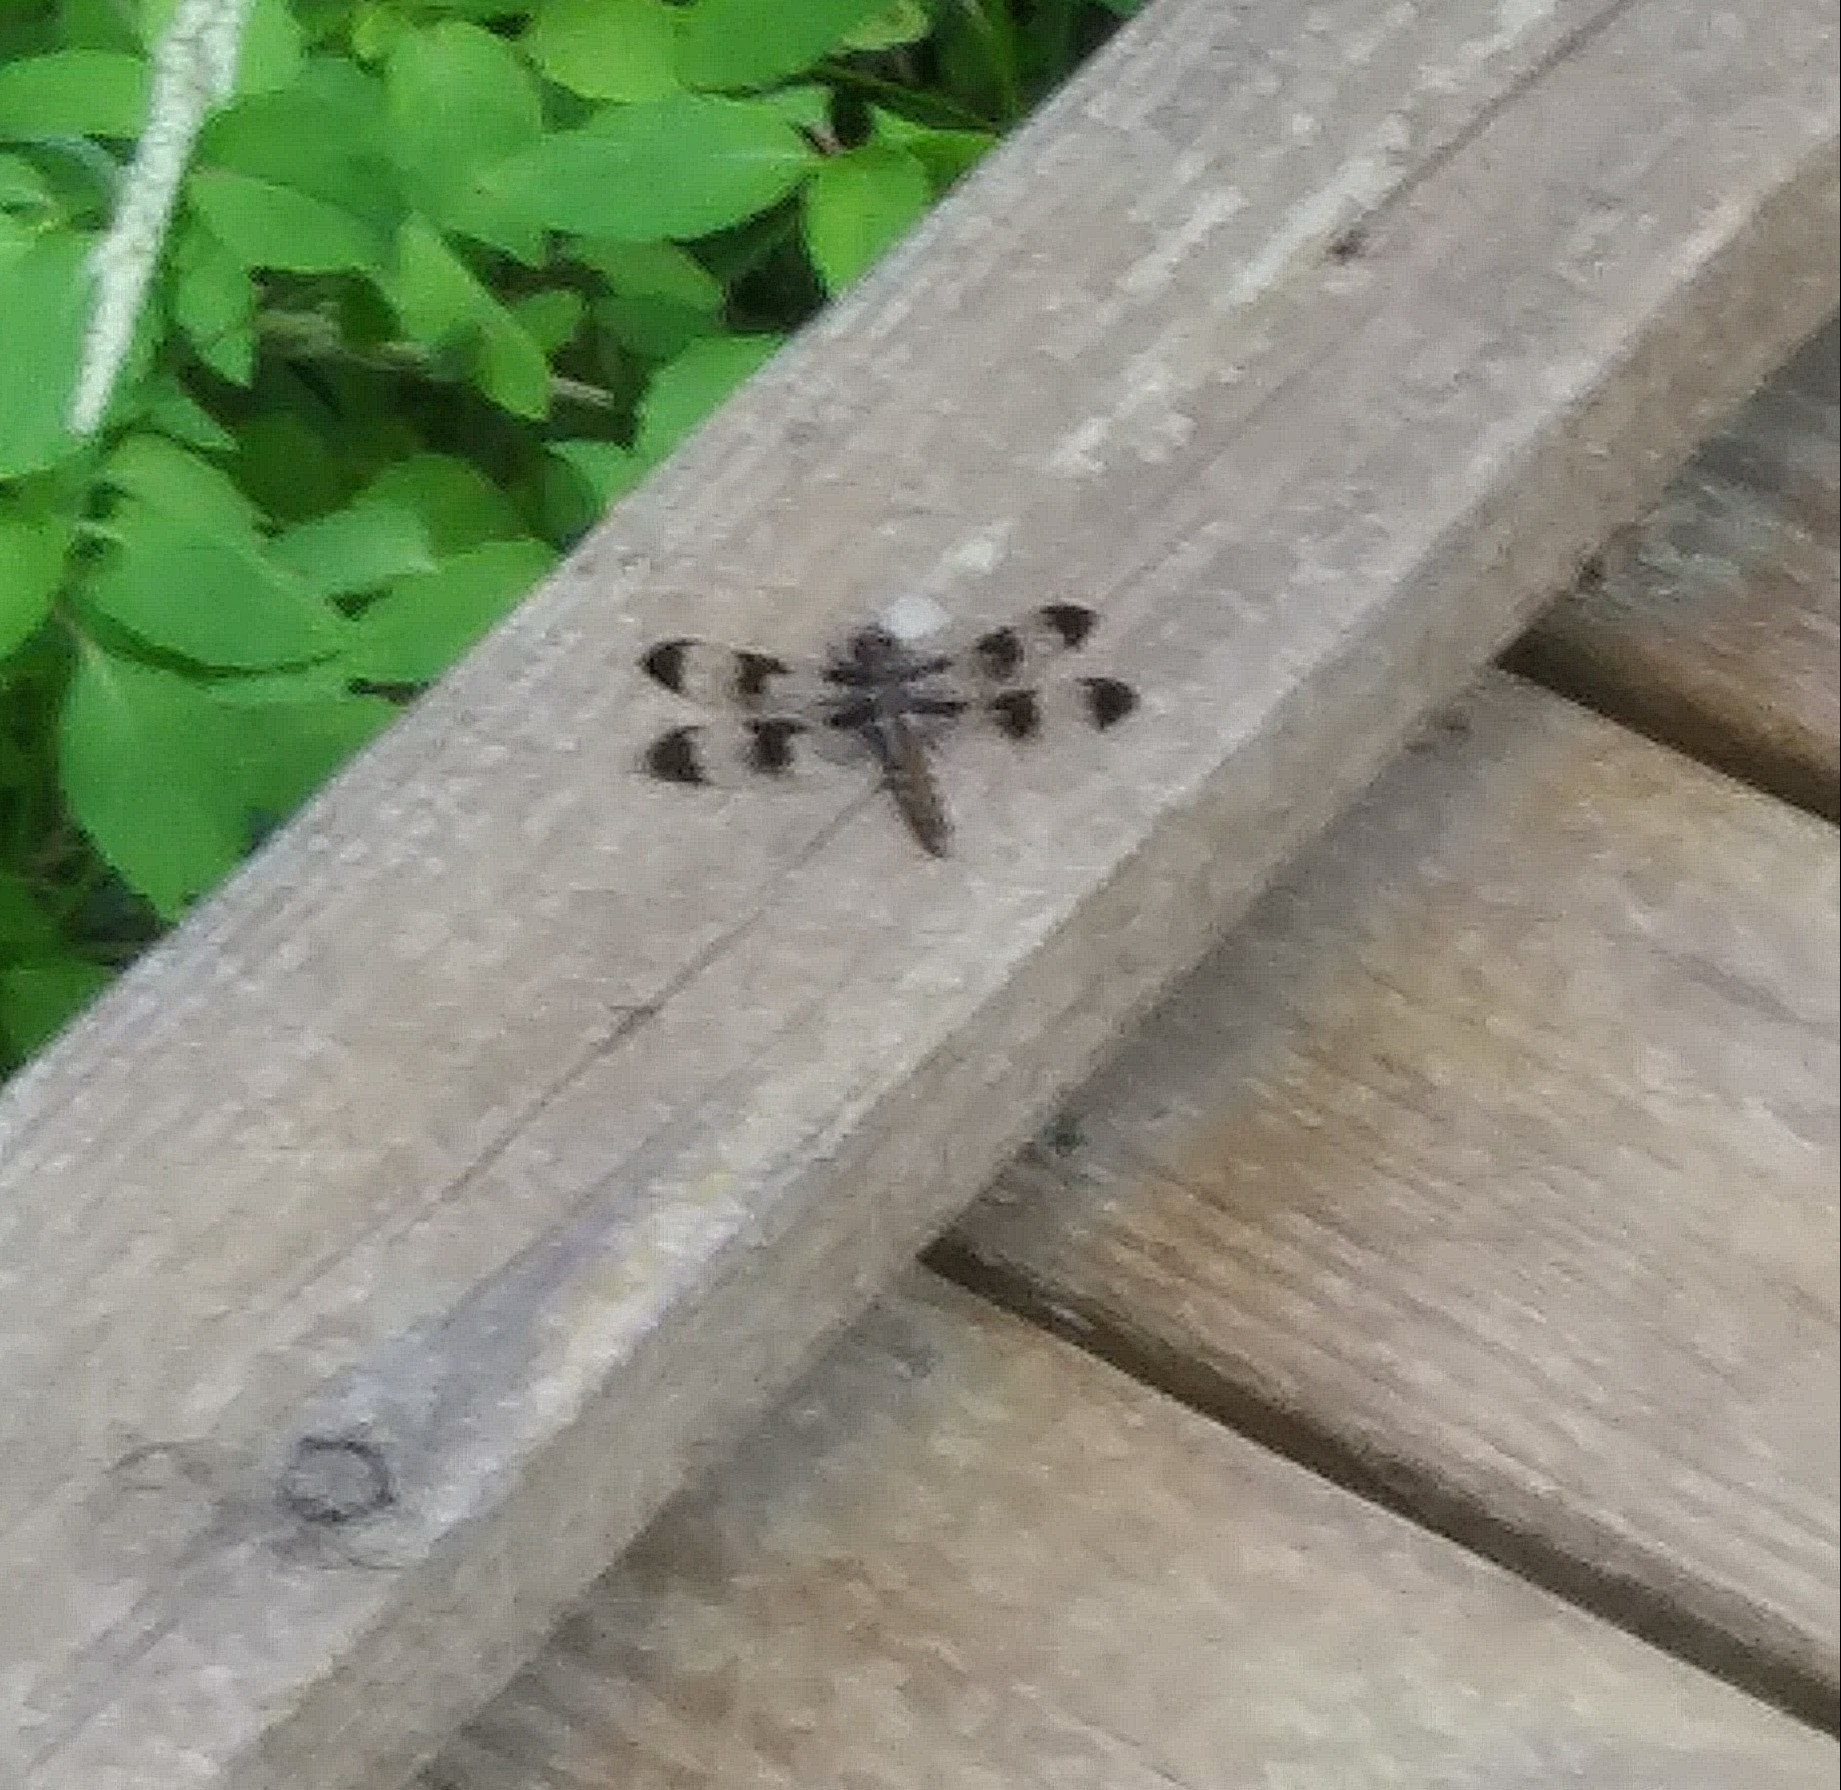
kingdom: Animalia
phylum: Arthropoda
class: Insecta
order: Odonata
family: Libellulidae
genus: Plathemis
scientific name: Plathemis lydia
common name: Common whitetail
